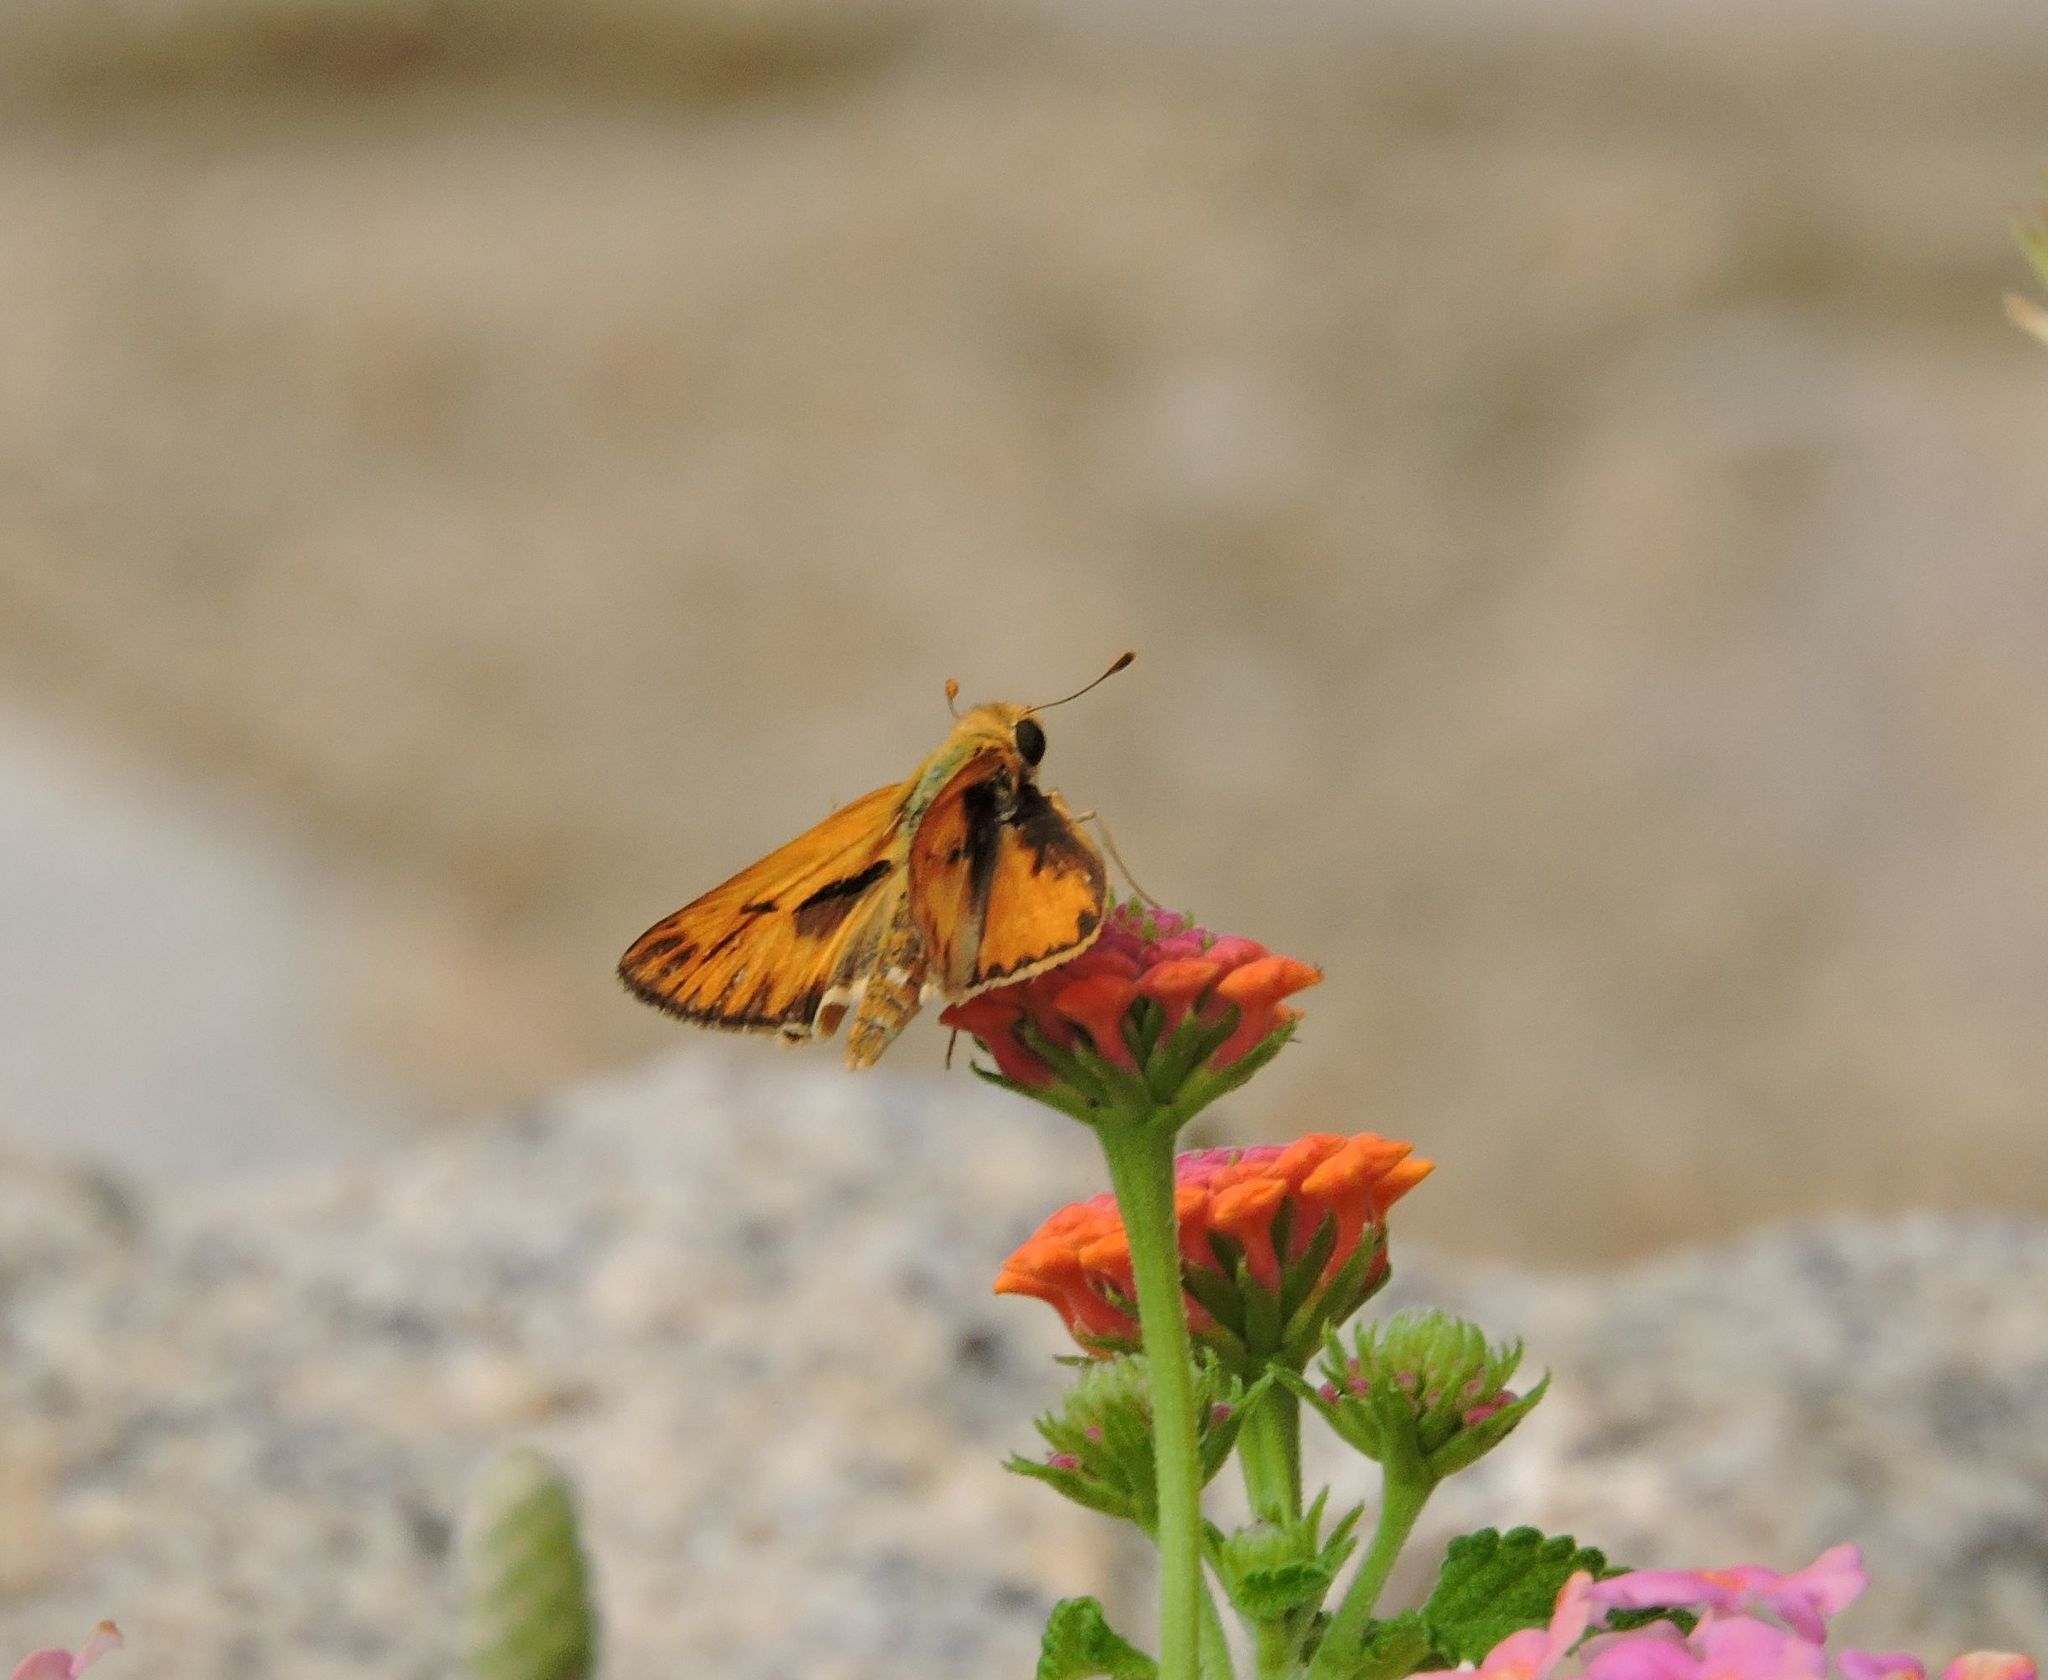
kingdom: Animalia
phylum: Arthropoda
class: Insecta
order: Lepidoptera
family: Hesperiidae
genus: Hylephila
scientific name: Hylephila phyleus
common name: Fiery skipper
